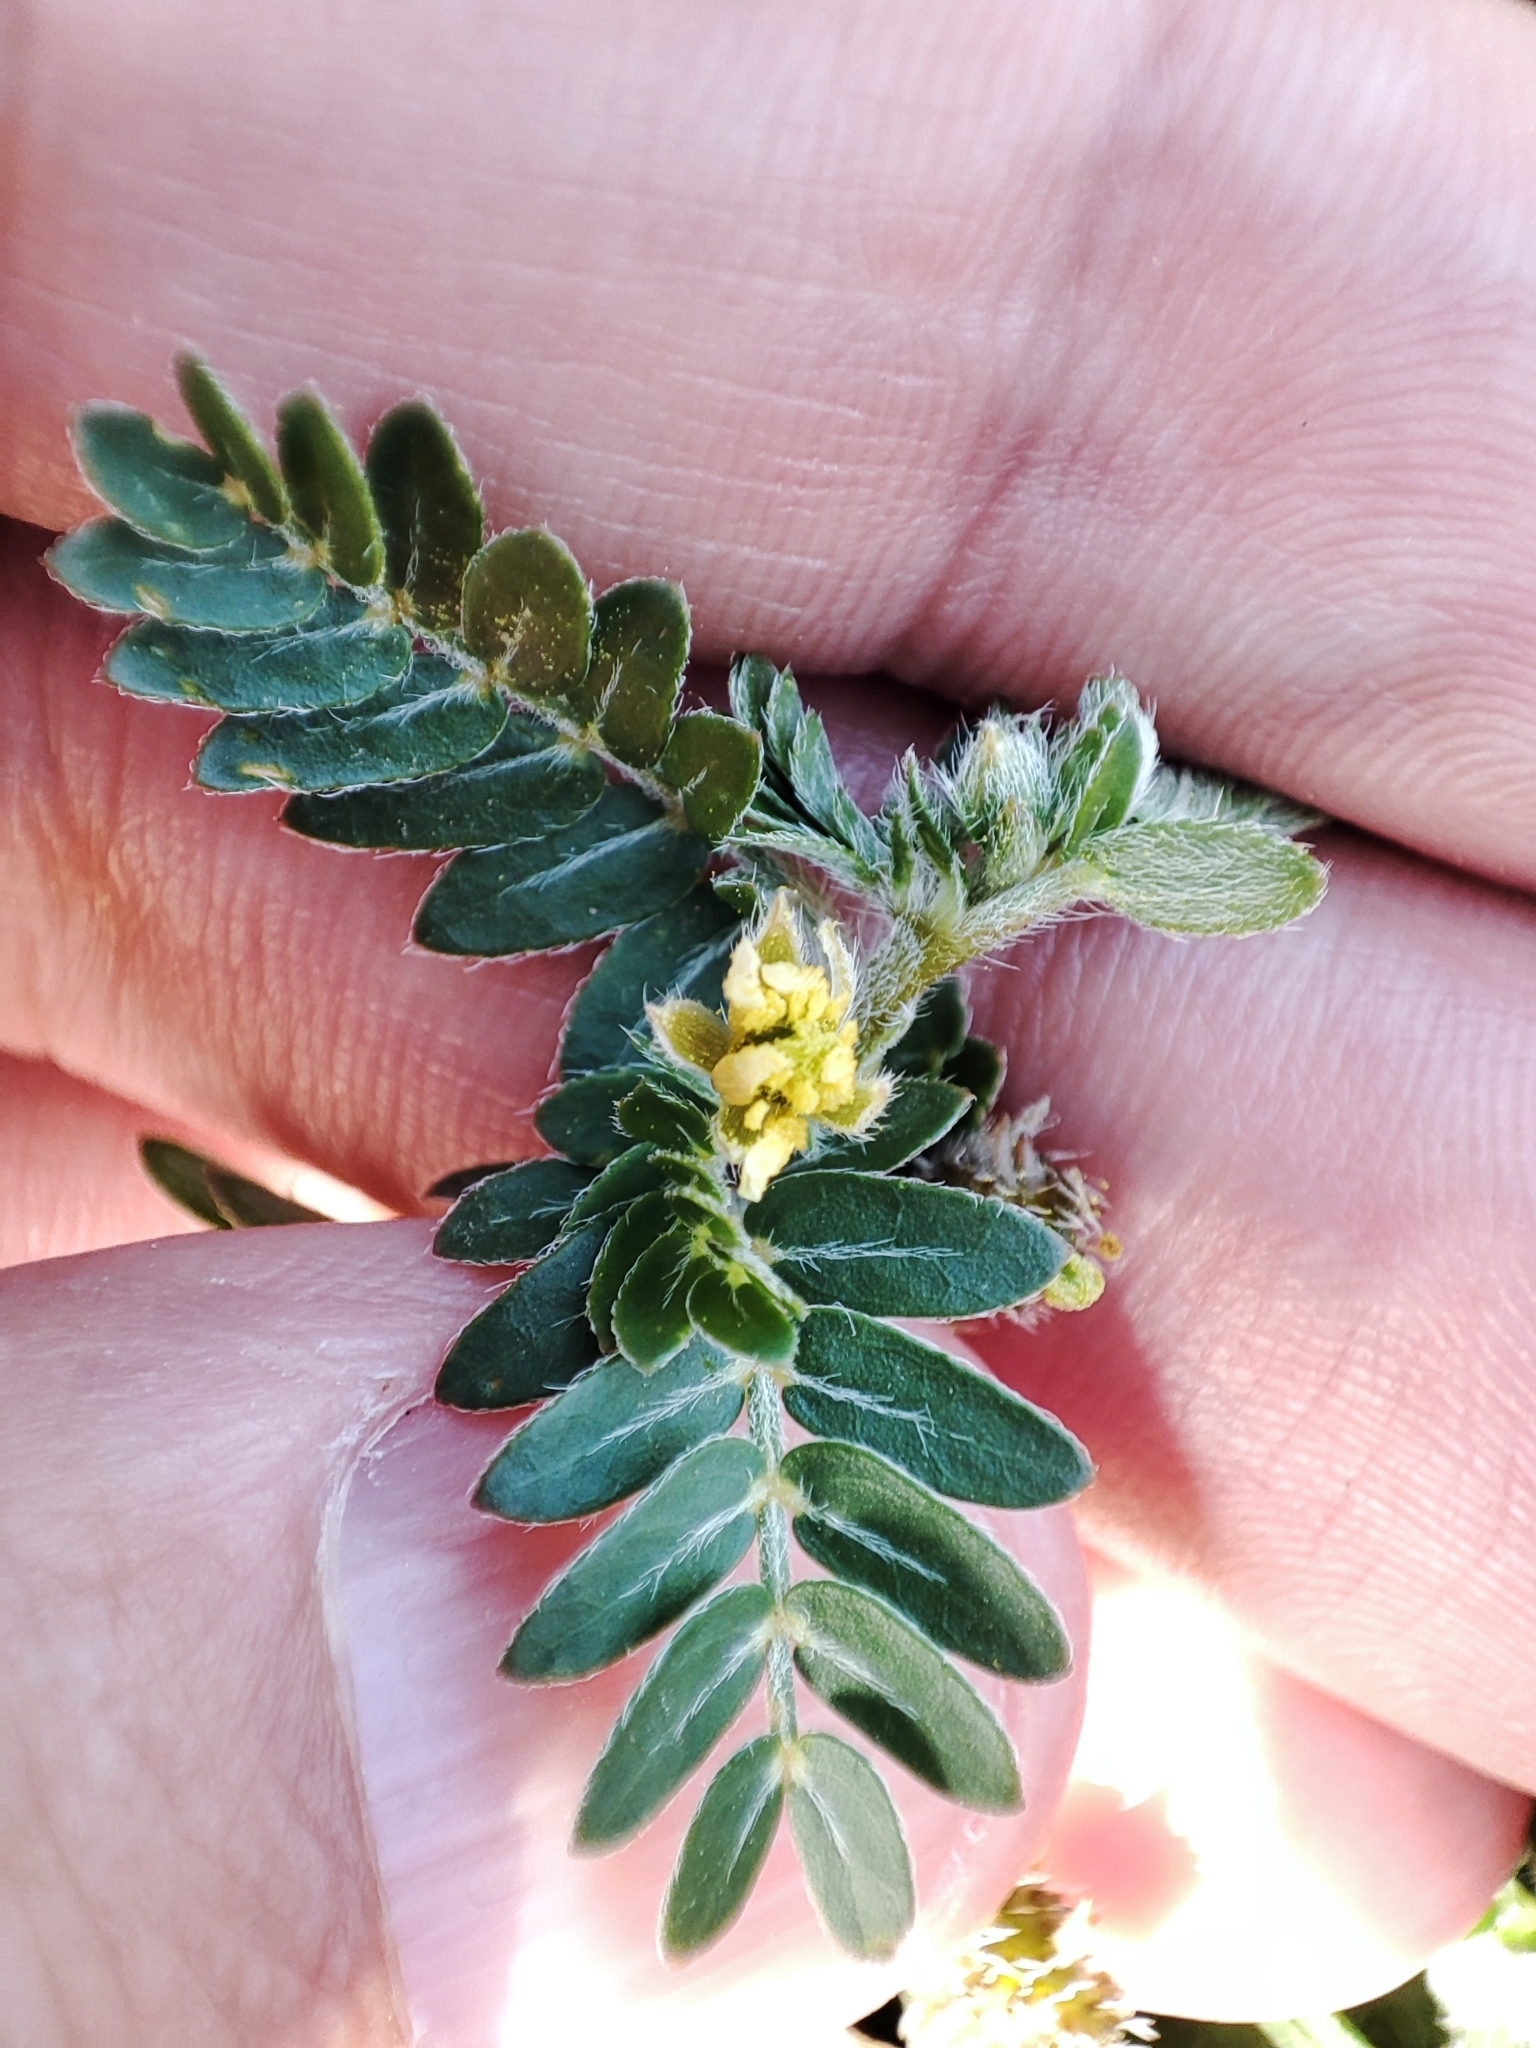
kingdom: Plantae
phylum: Tracheophyta
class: Magnoliopsida
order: Zygophyllales
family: Zygophyllaceae
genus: Tribulus
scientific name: Tribulus terrestris
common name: Puncturevine
